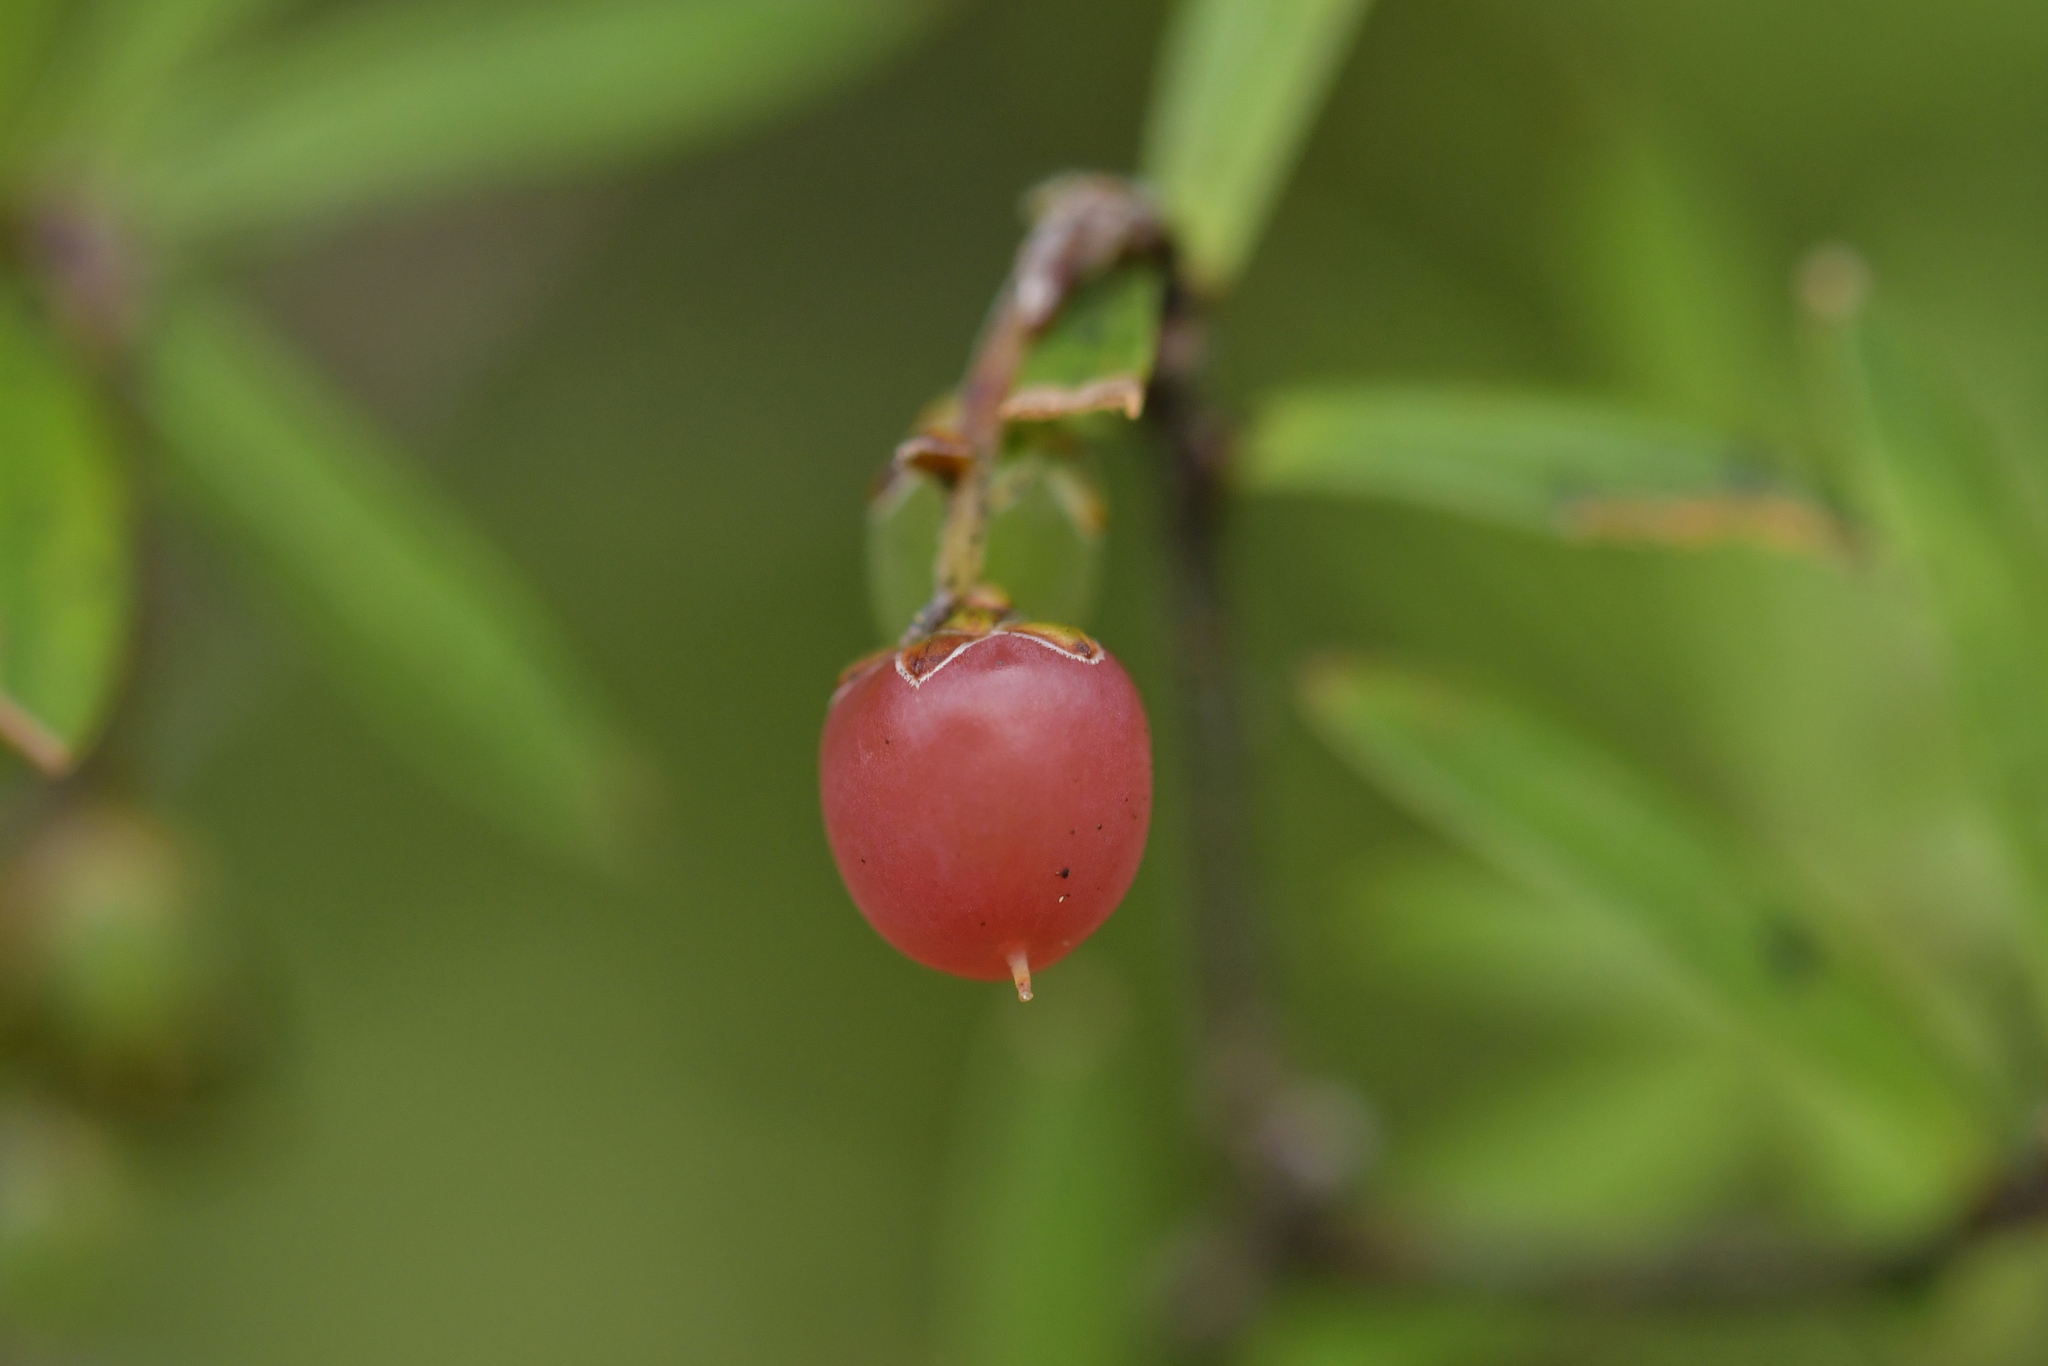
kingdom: Plantae
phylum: Tracheophyta
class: Magnoliopsida
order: Ericales
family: Ericaceae
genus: Leucopogon
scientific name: Leucopogon fasciculatus
